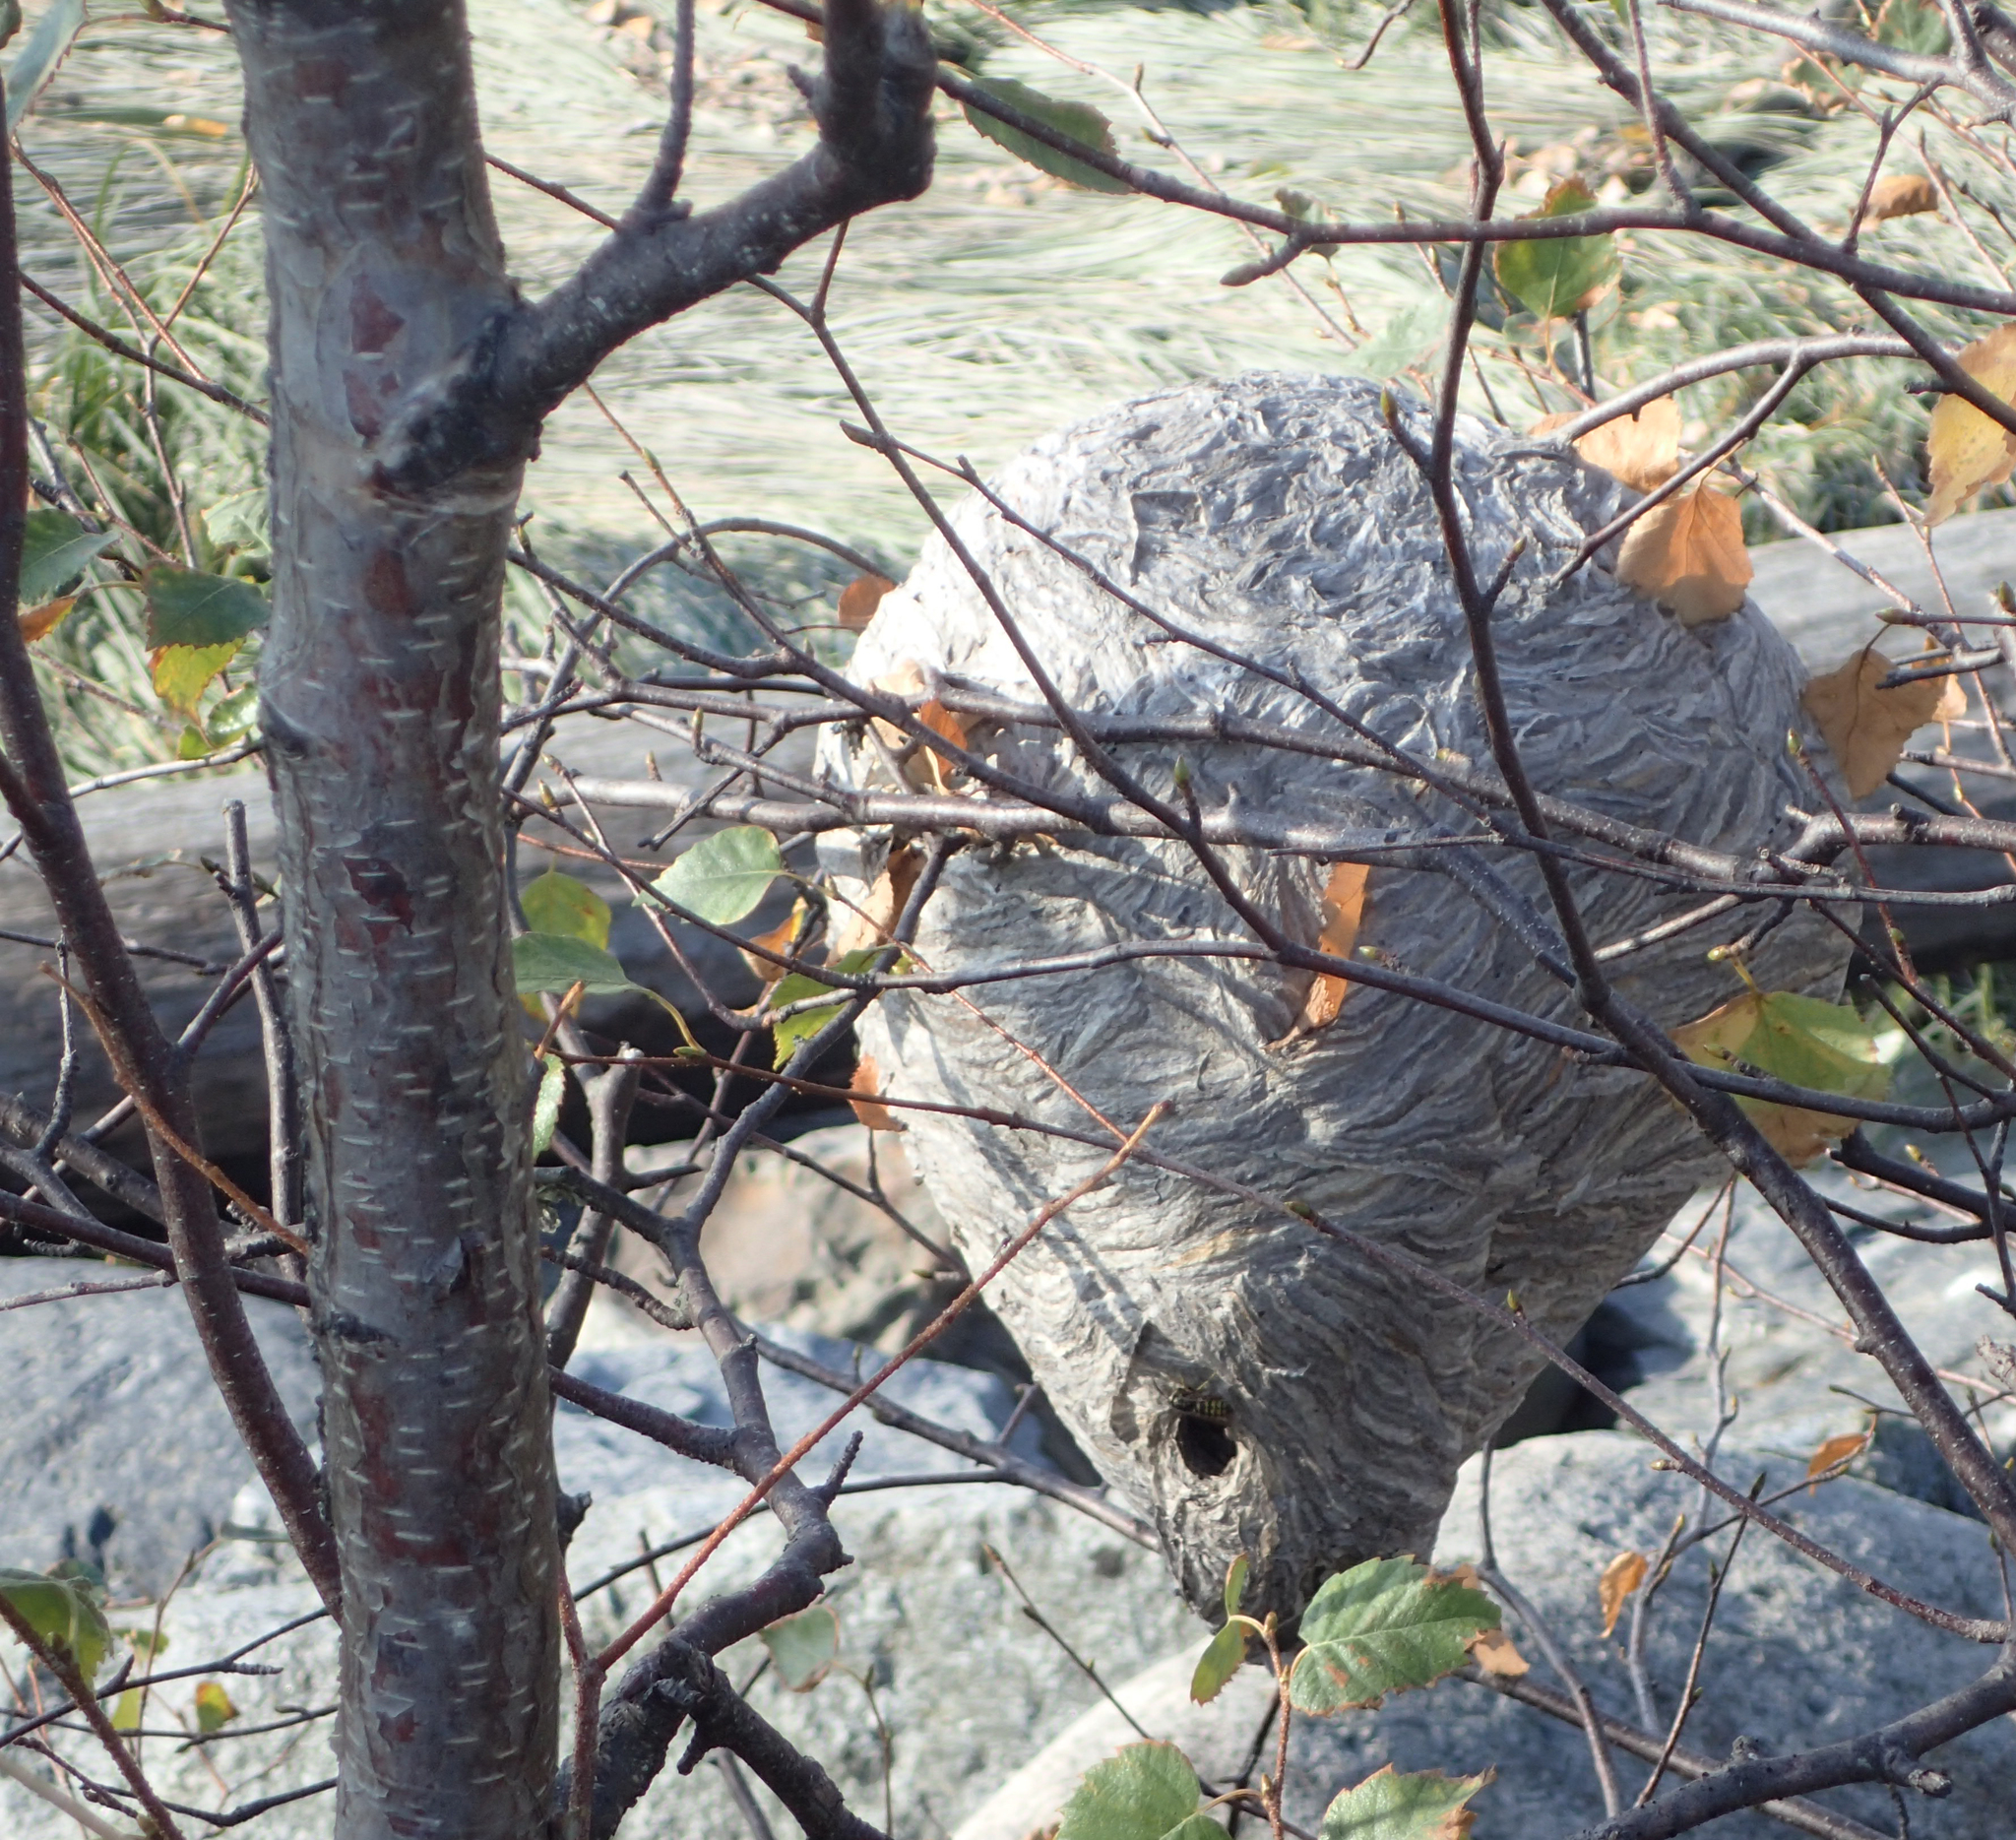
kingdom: Animalia
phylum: Arthropoda
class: Insecta
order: Hymenoptera
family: Vespidae
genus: Dolichovespula
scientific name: Dolichovespula arenaria
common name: Aerial yellowjacket
